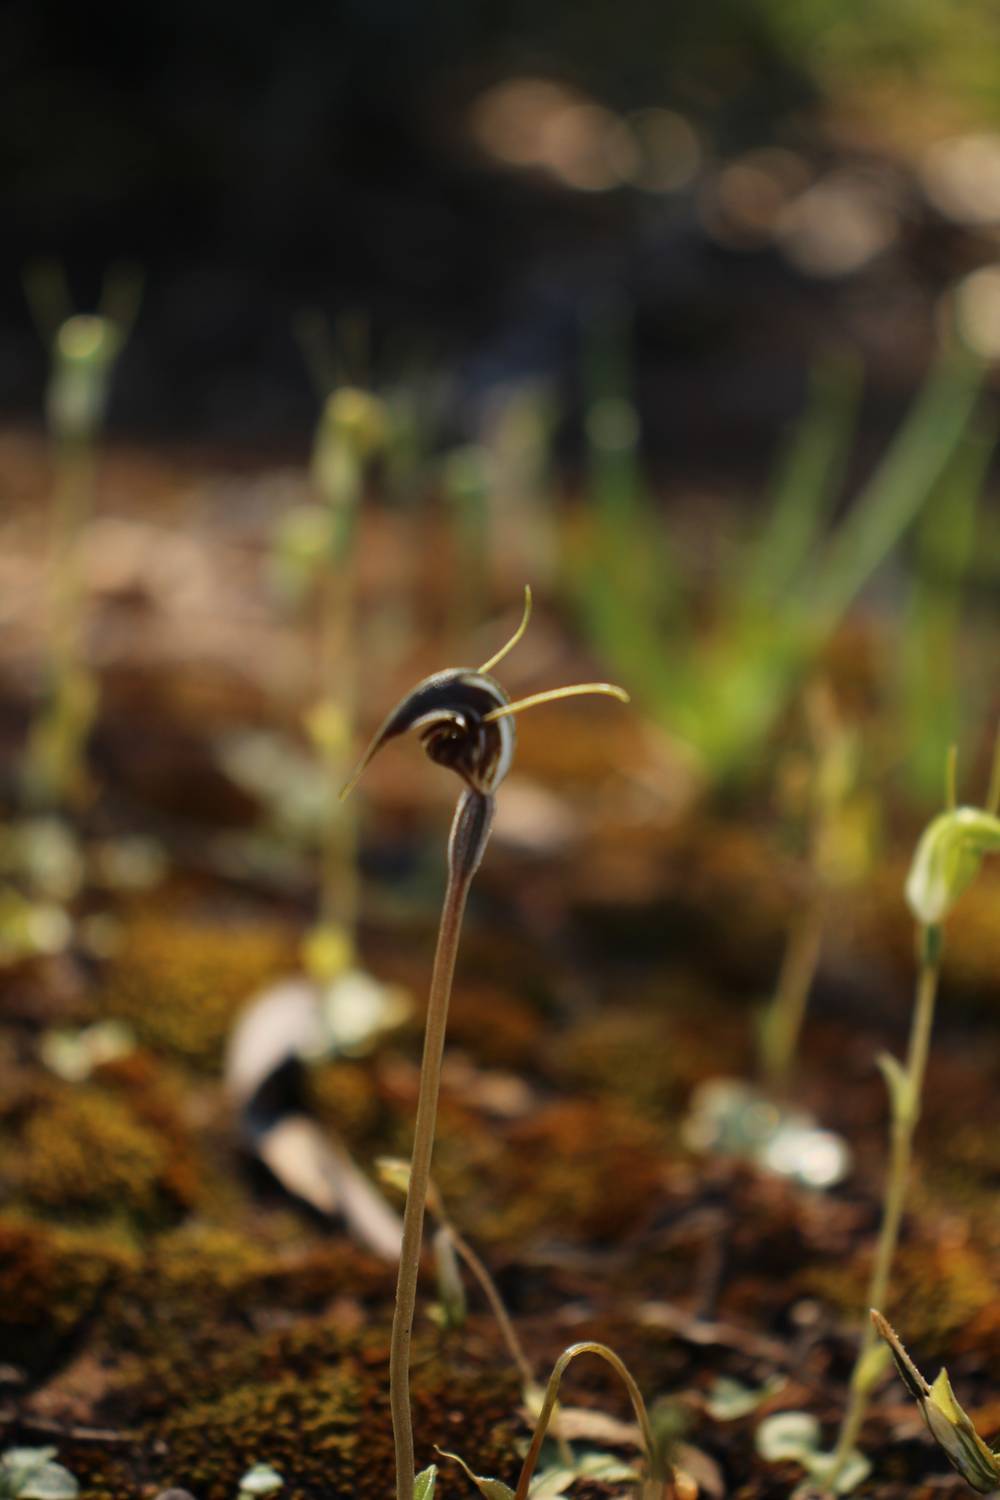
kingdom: Plantae
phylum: Tracheophyta
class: Liliopsida
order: Asparagales
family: Orchidaceae
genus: Pterostylis
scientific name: Pterostylis allantoidea
